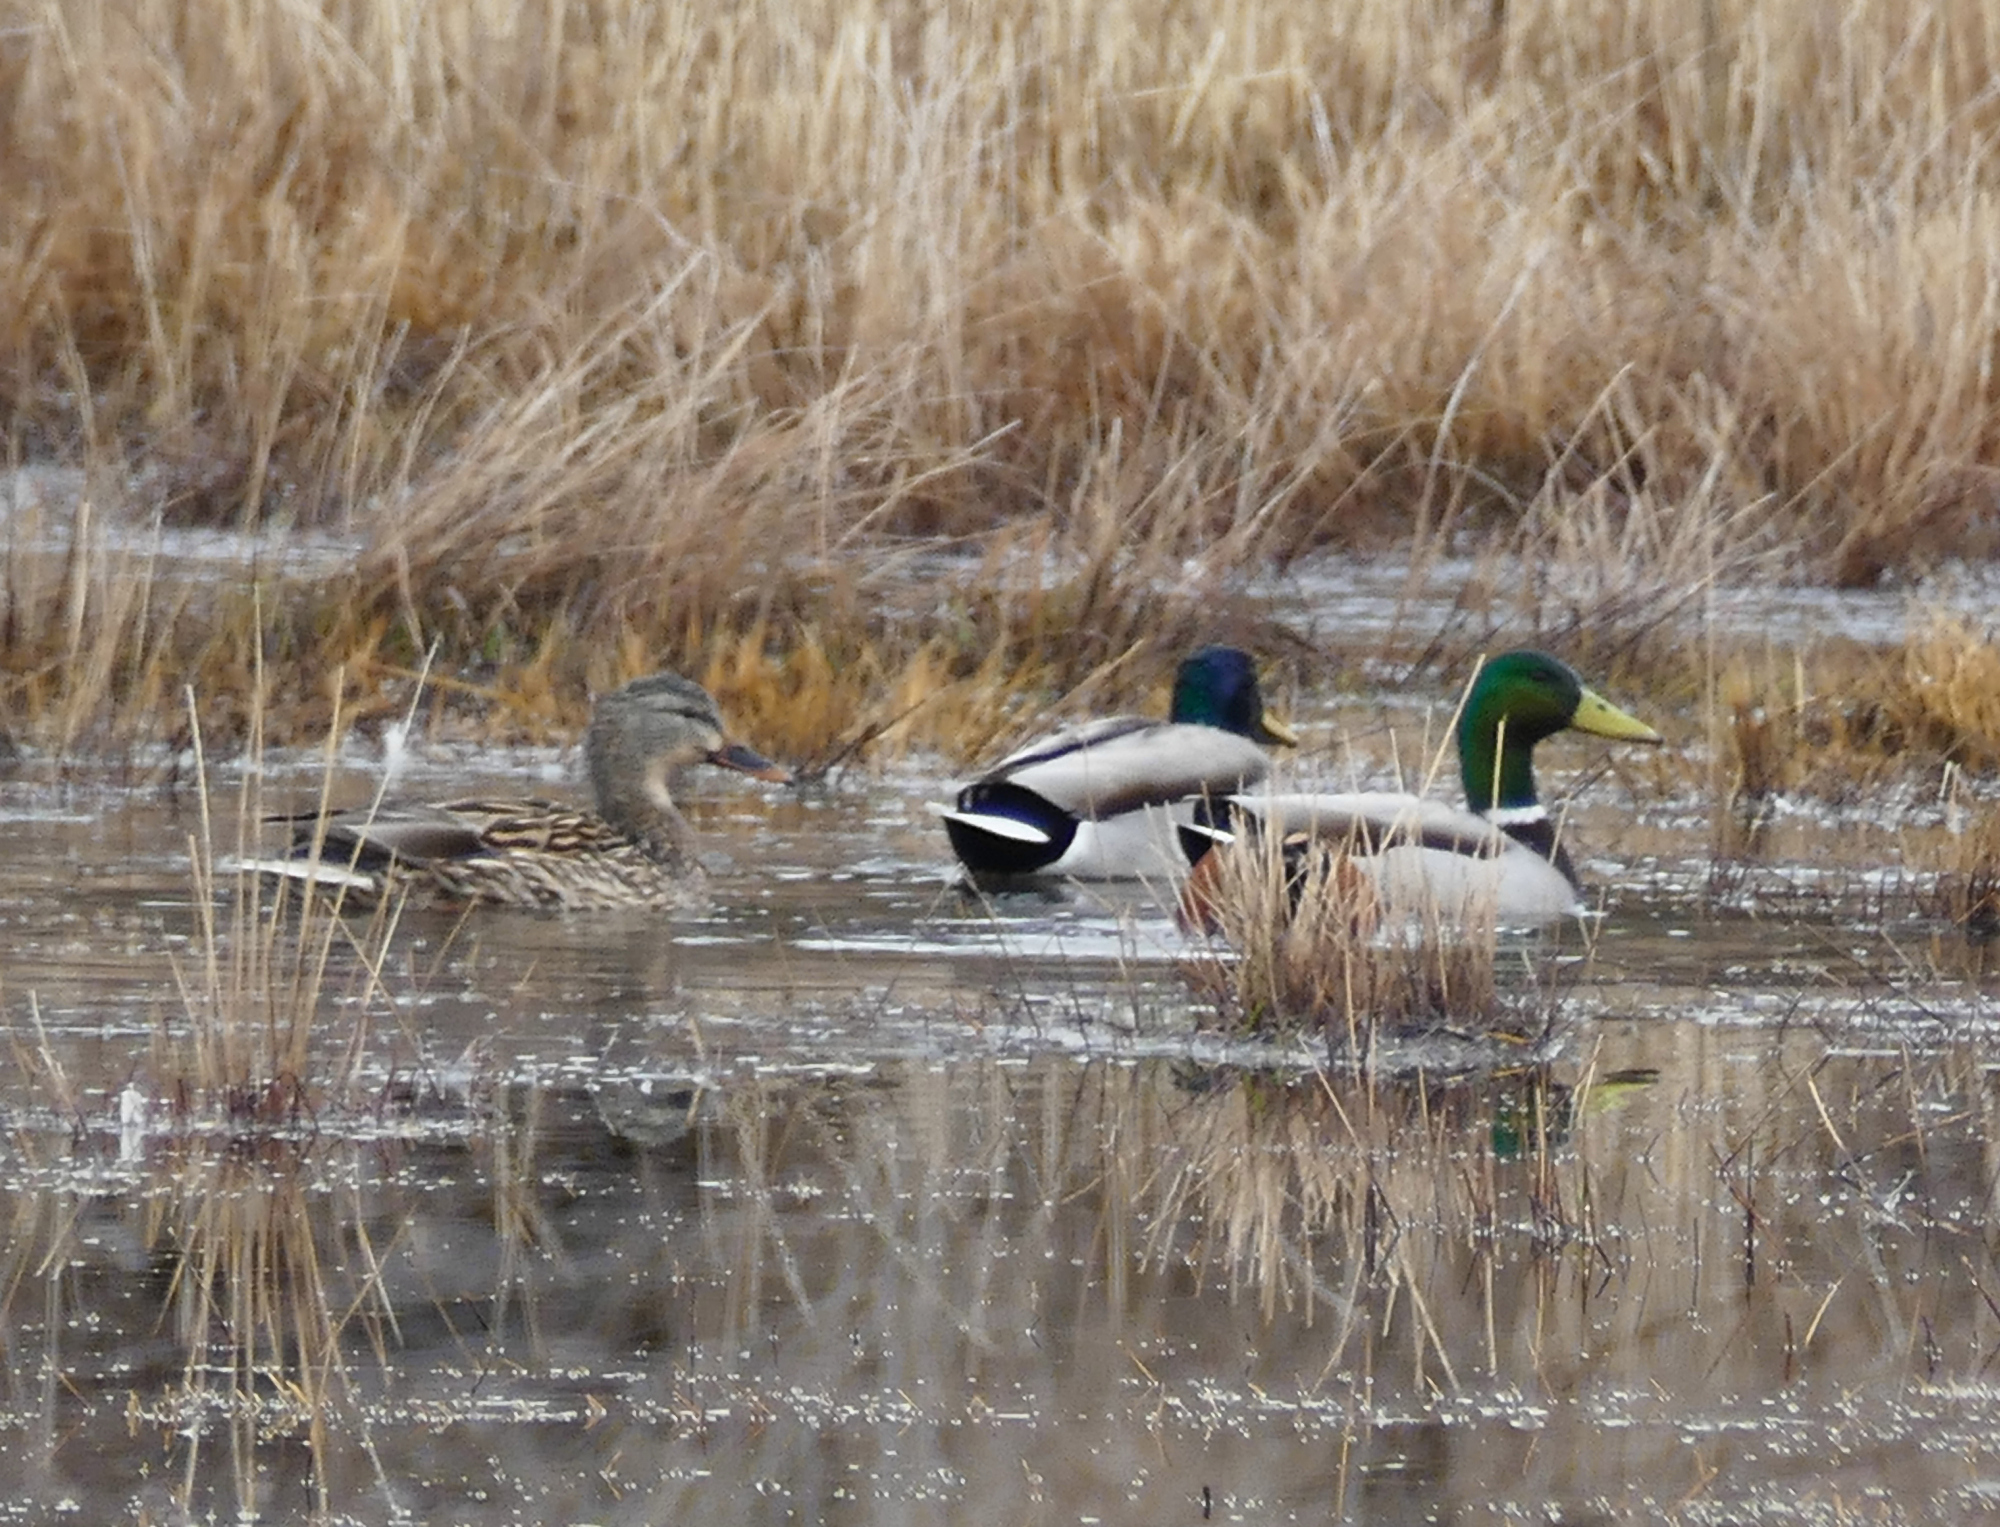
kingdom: Animalia
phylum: Chordata
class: Aves
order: Anseriformes
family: Anatidae
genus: Anas
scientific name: Anas platyrhynchos
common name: Mallard
